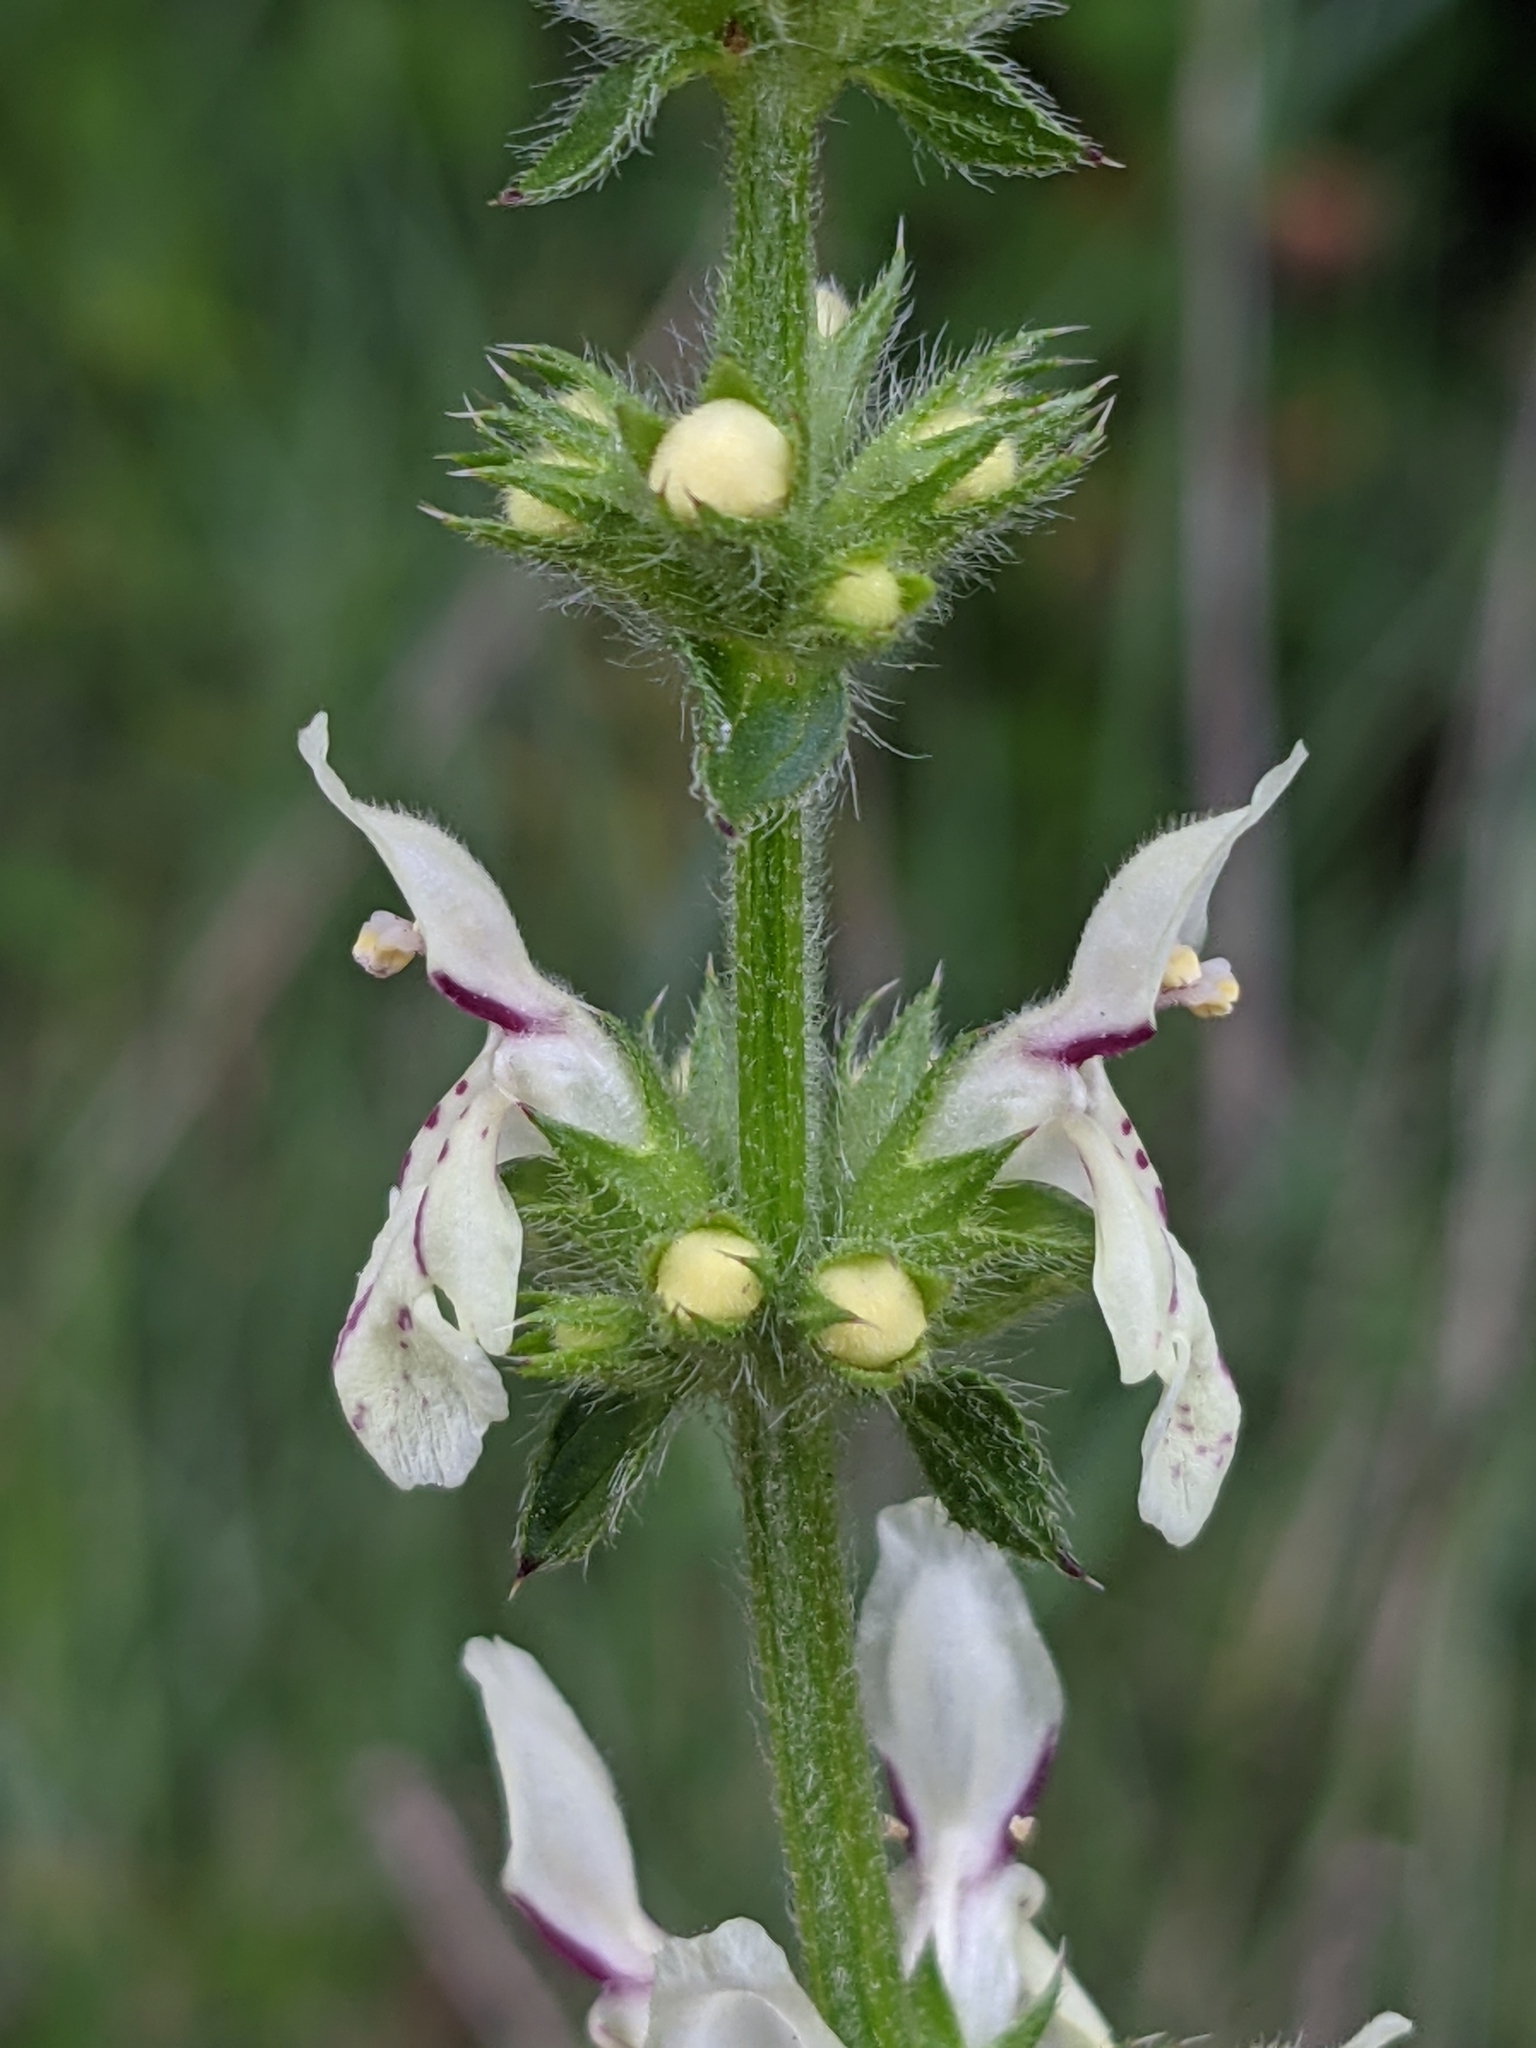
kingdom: Plantae
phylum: Tracheophyta
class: Magnoliopsida
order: Lamiales
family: Lamiaceae
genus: Stachys
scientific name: Stachys recta
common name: Perennial yellow-woundwort
